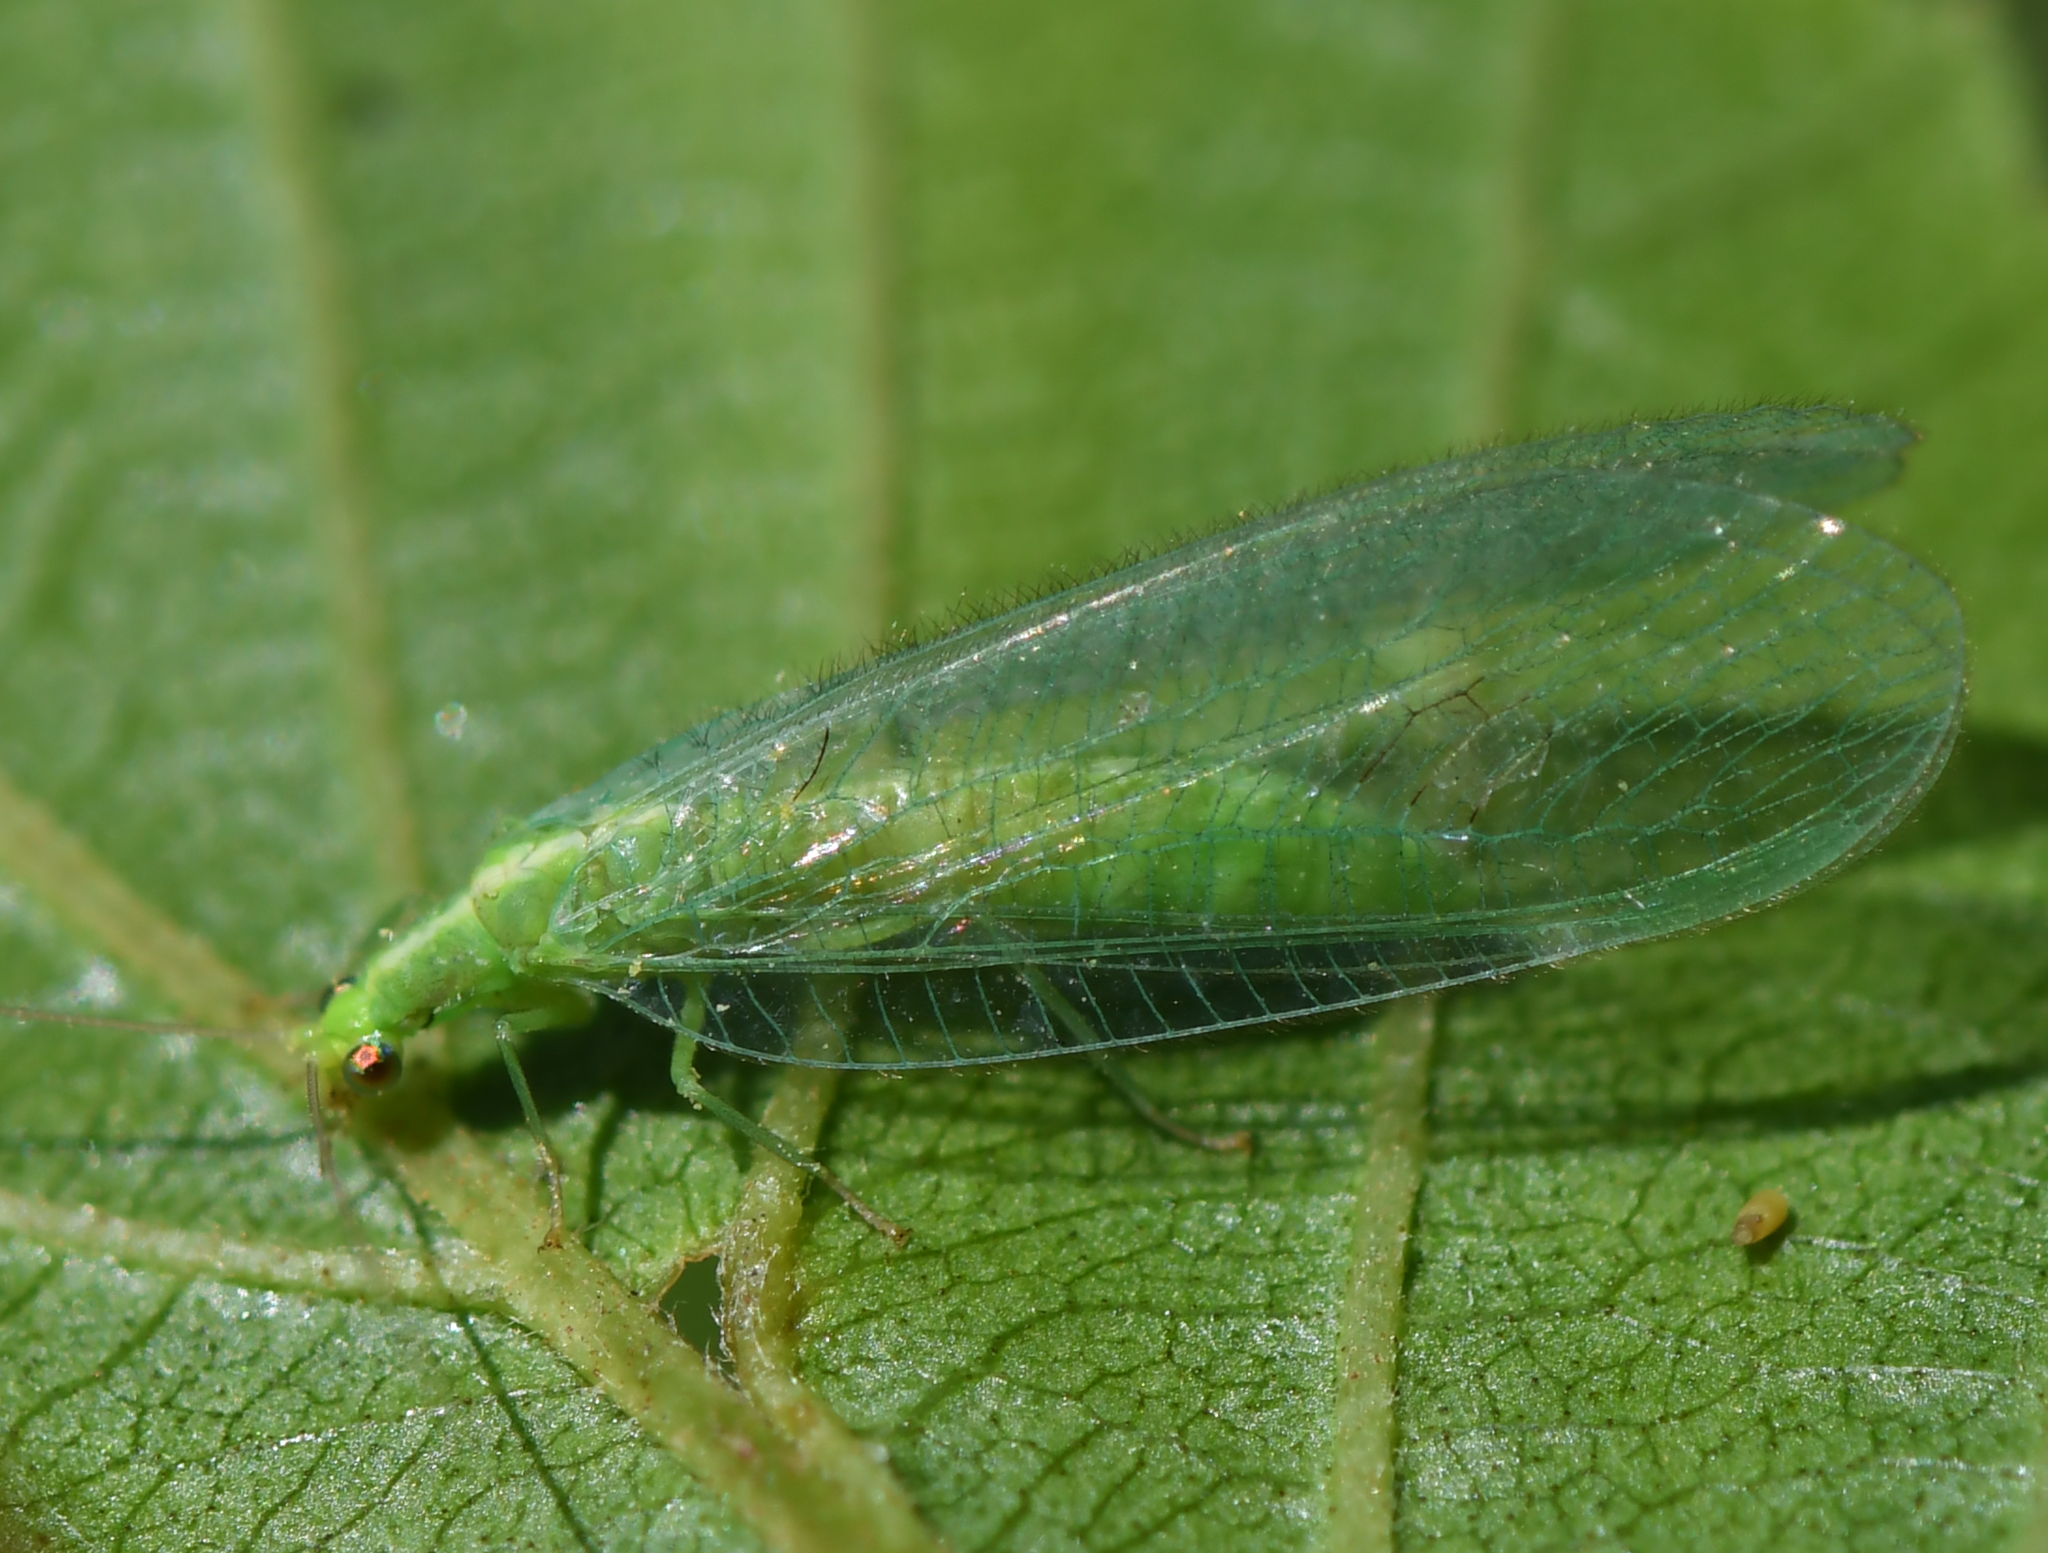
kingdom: Animalia
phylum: Arthropoda
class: Insecta
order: Neuroptera
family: Chrysopidae
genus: Chrysoperla
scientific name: Chrysoperla
